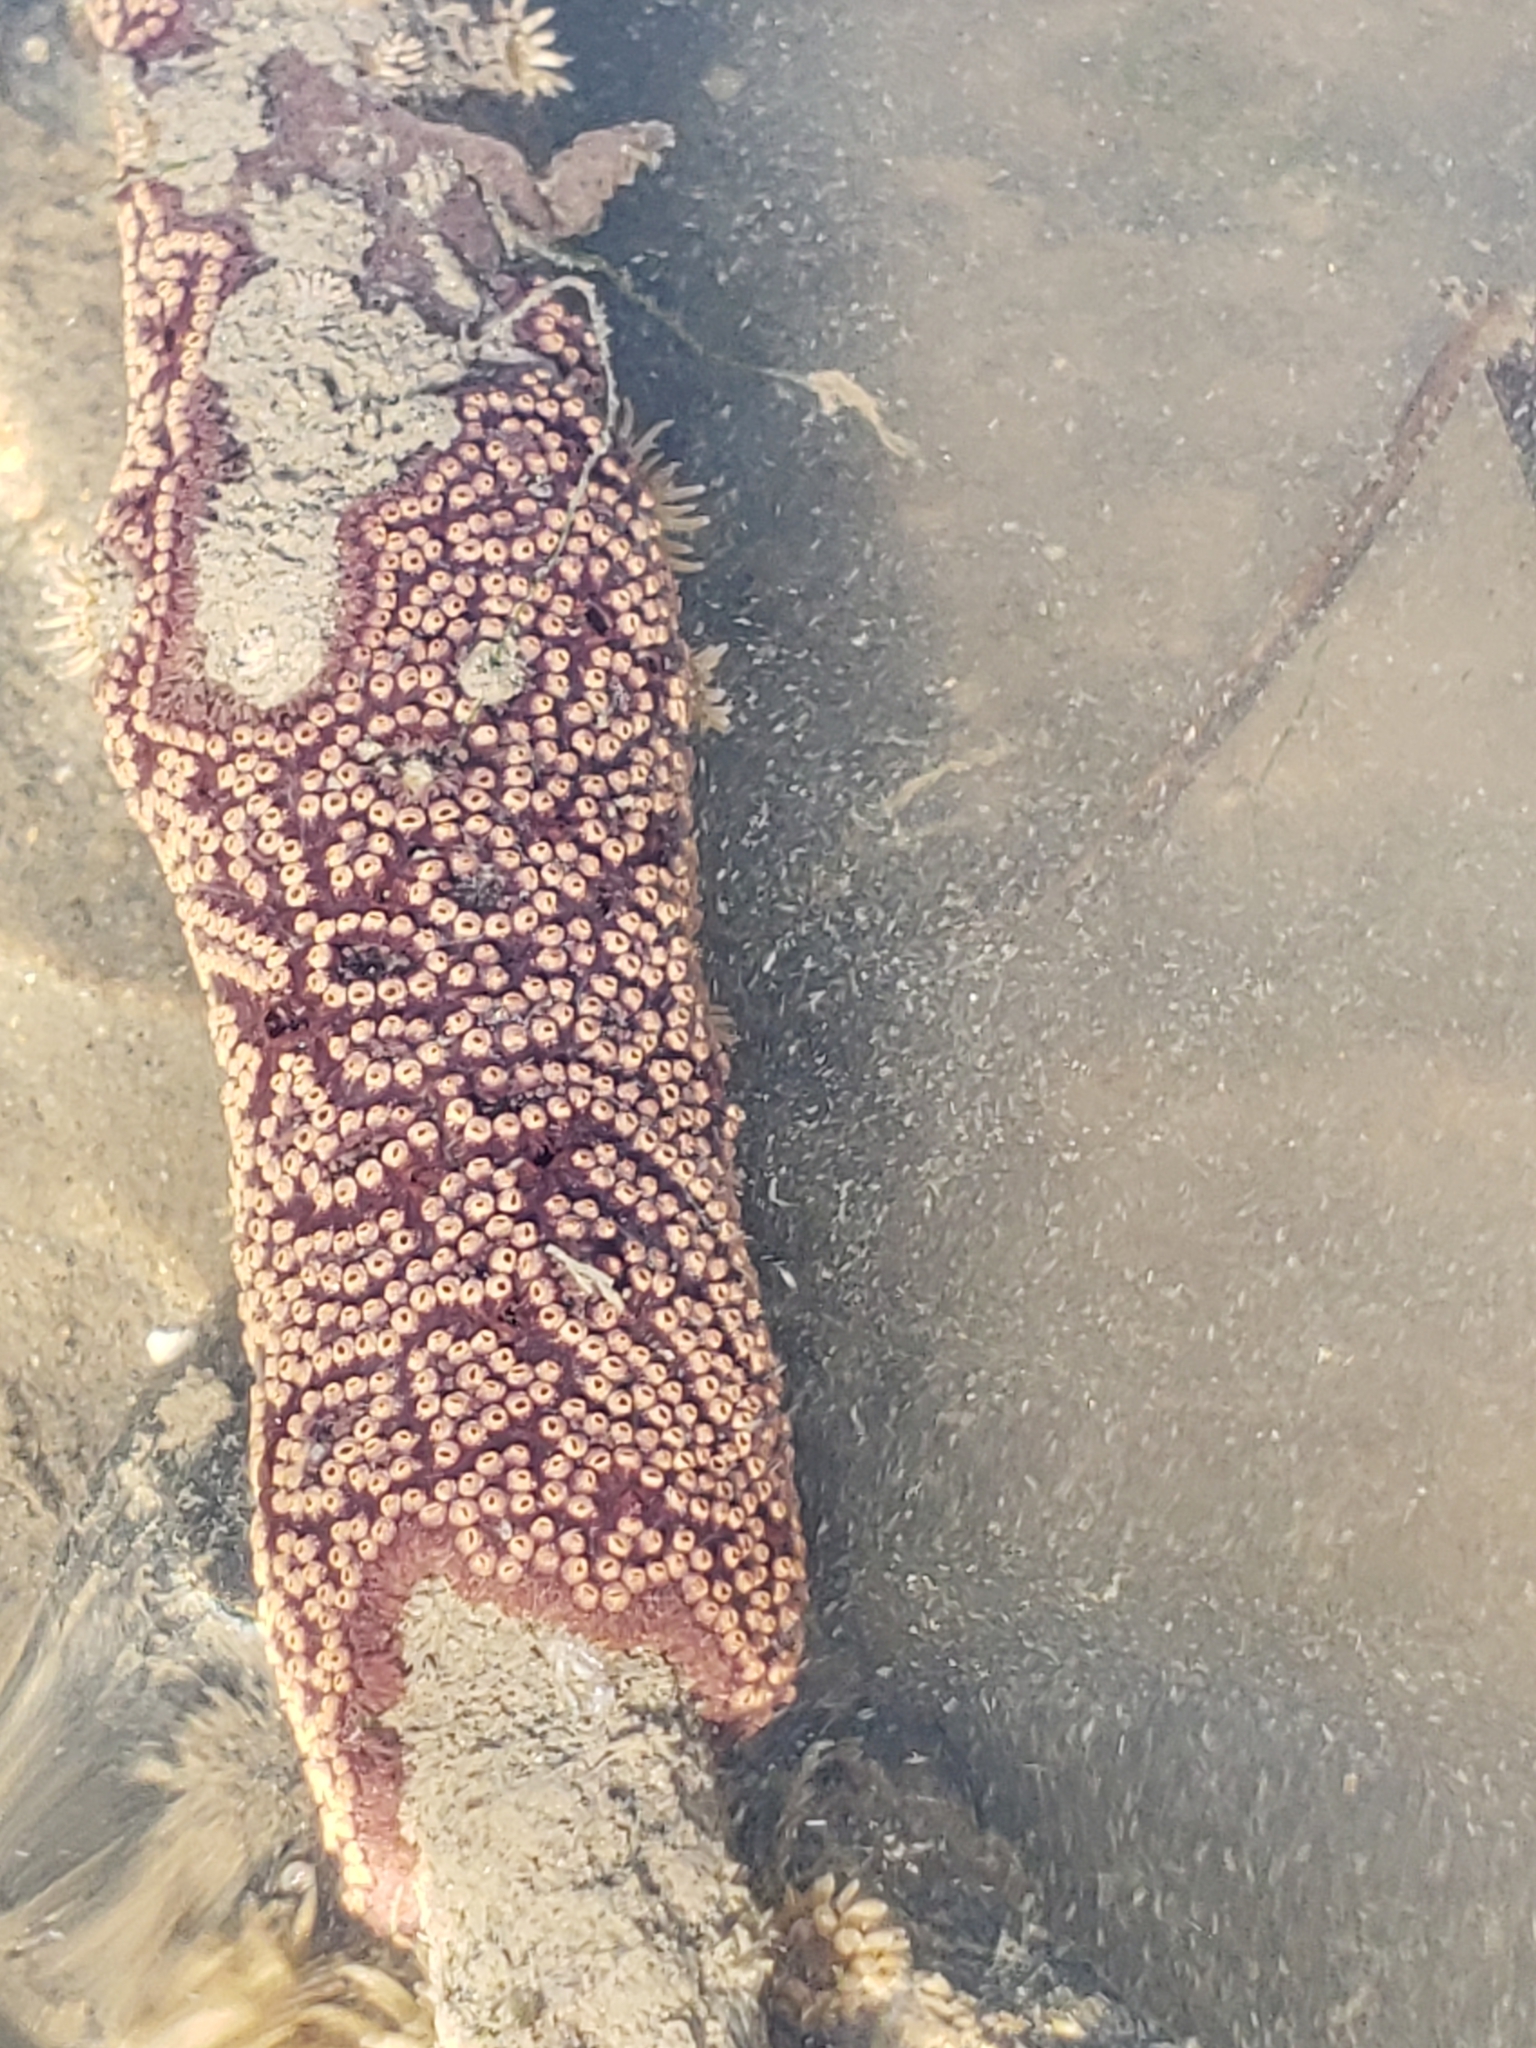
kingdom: Animalia
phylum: Chordata
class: Ascidiacea
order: Stolidobranchia
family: Styelidae
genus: Botrylloides
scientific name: Botrylloides diegensis
